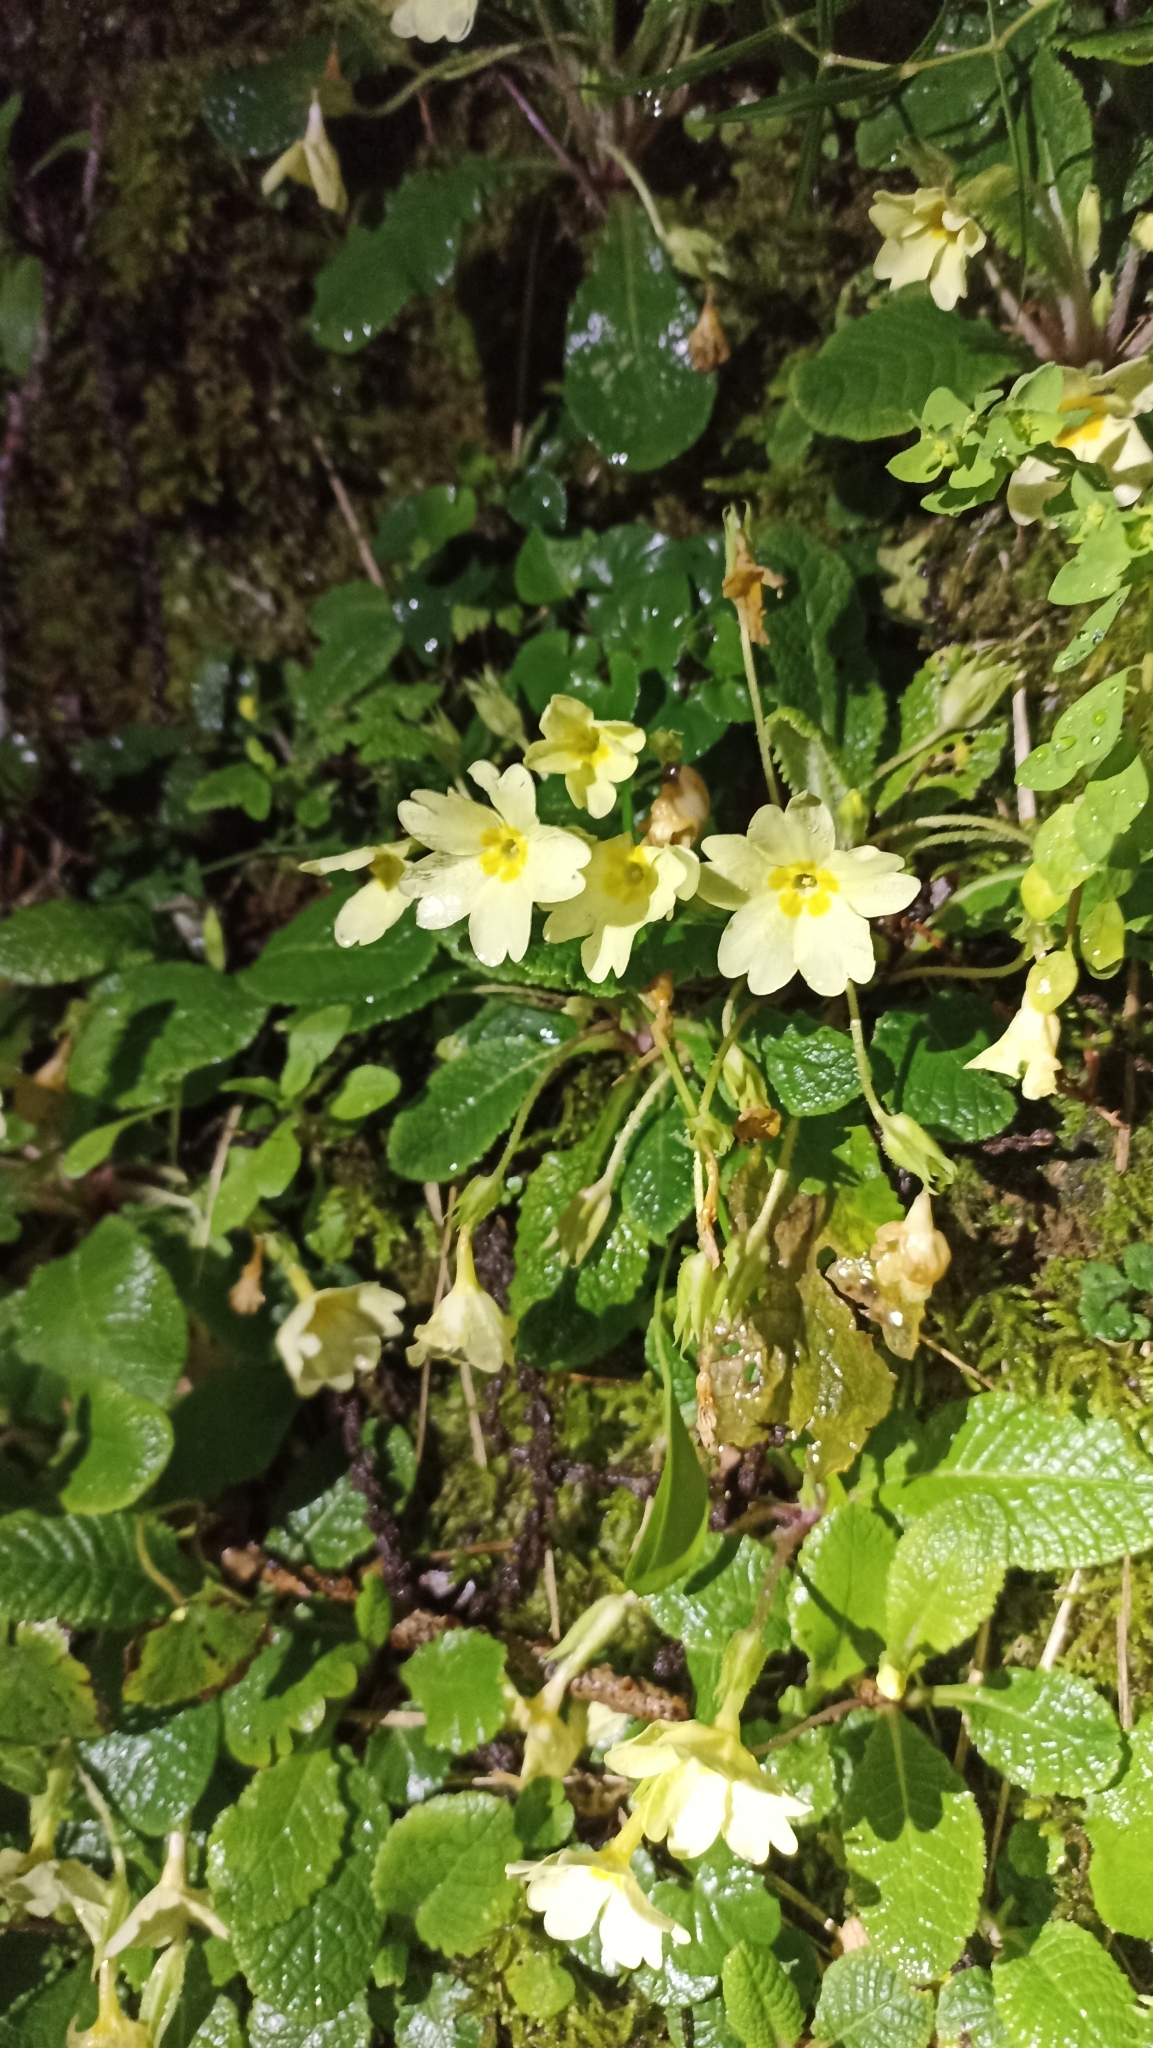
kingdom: Plantae
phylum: Tracheophyta
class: Magnoliopsida
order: Ericales
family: Primulaceae
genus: Primula
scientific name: Primula vulgaris
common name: Primrose
